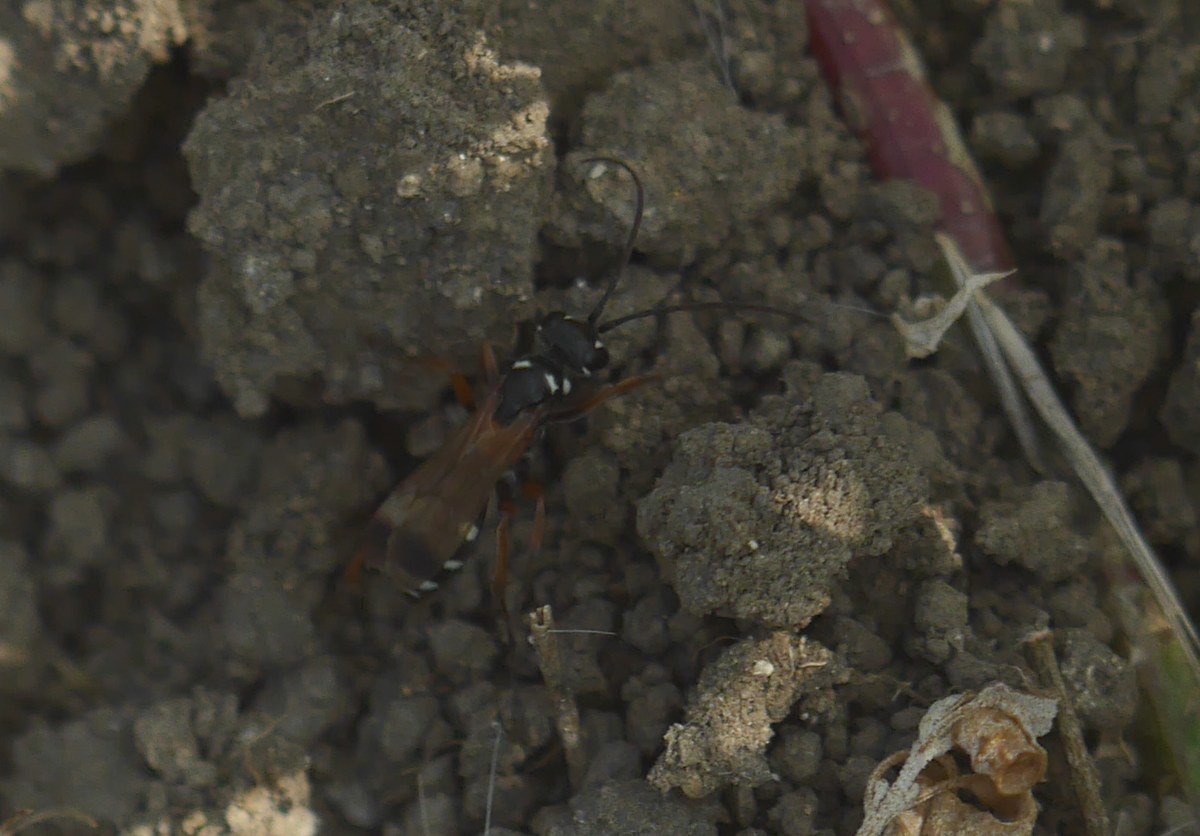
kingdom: Animalia
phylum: Arthropoda
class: Insecta
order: Hymenoptera
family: Pompilidae
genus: Cryptocheilus
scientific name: Cryptocheilus fabricii
